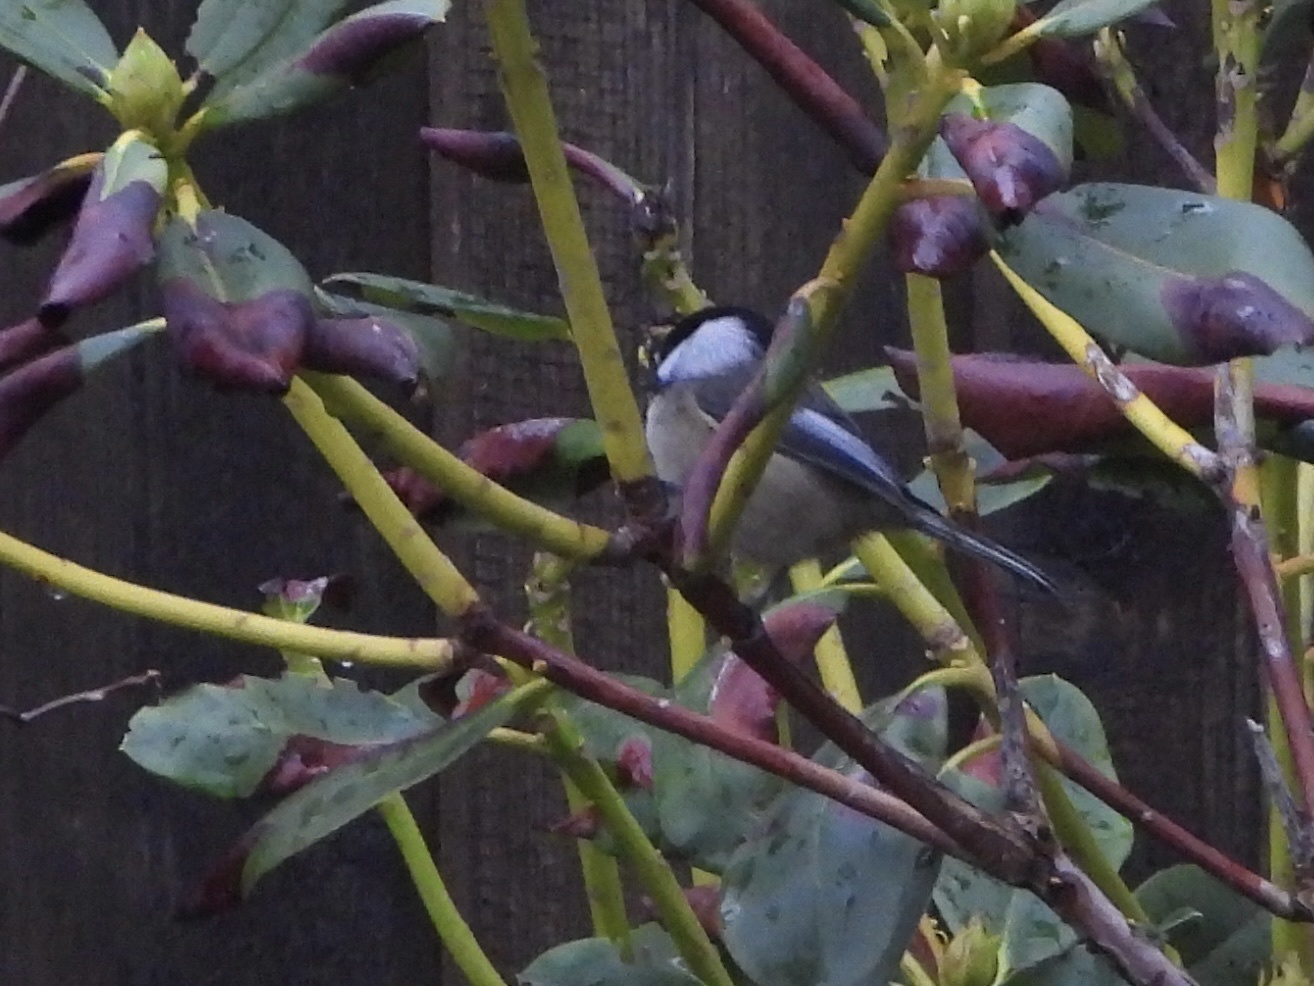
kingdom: Animalia
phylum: Chordata
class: Aves
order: Passeriformes
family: Paridae
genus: Poecile
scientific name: Poecile atricapillus
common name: Black-capped chickadee
